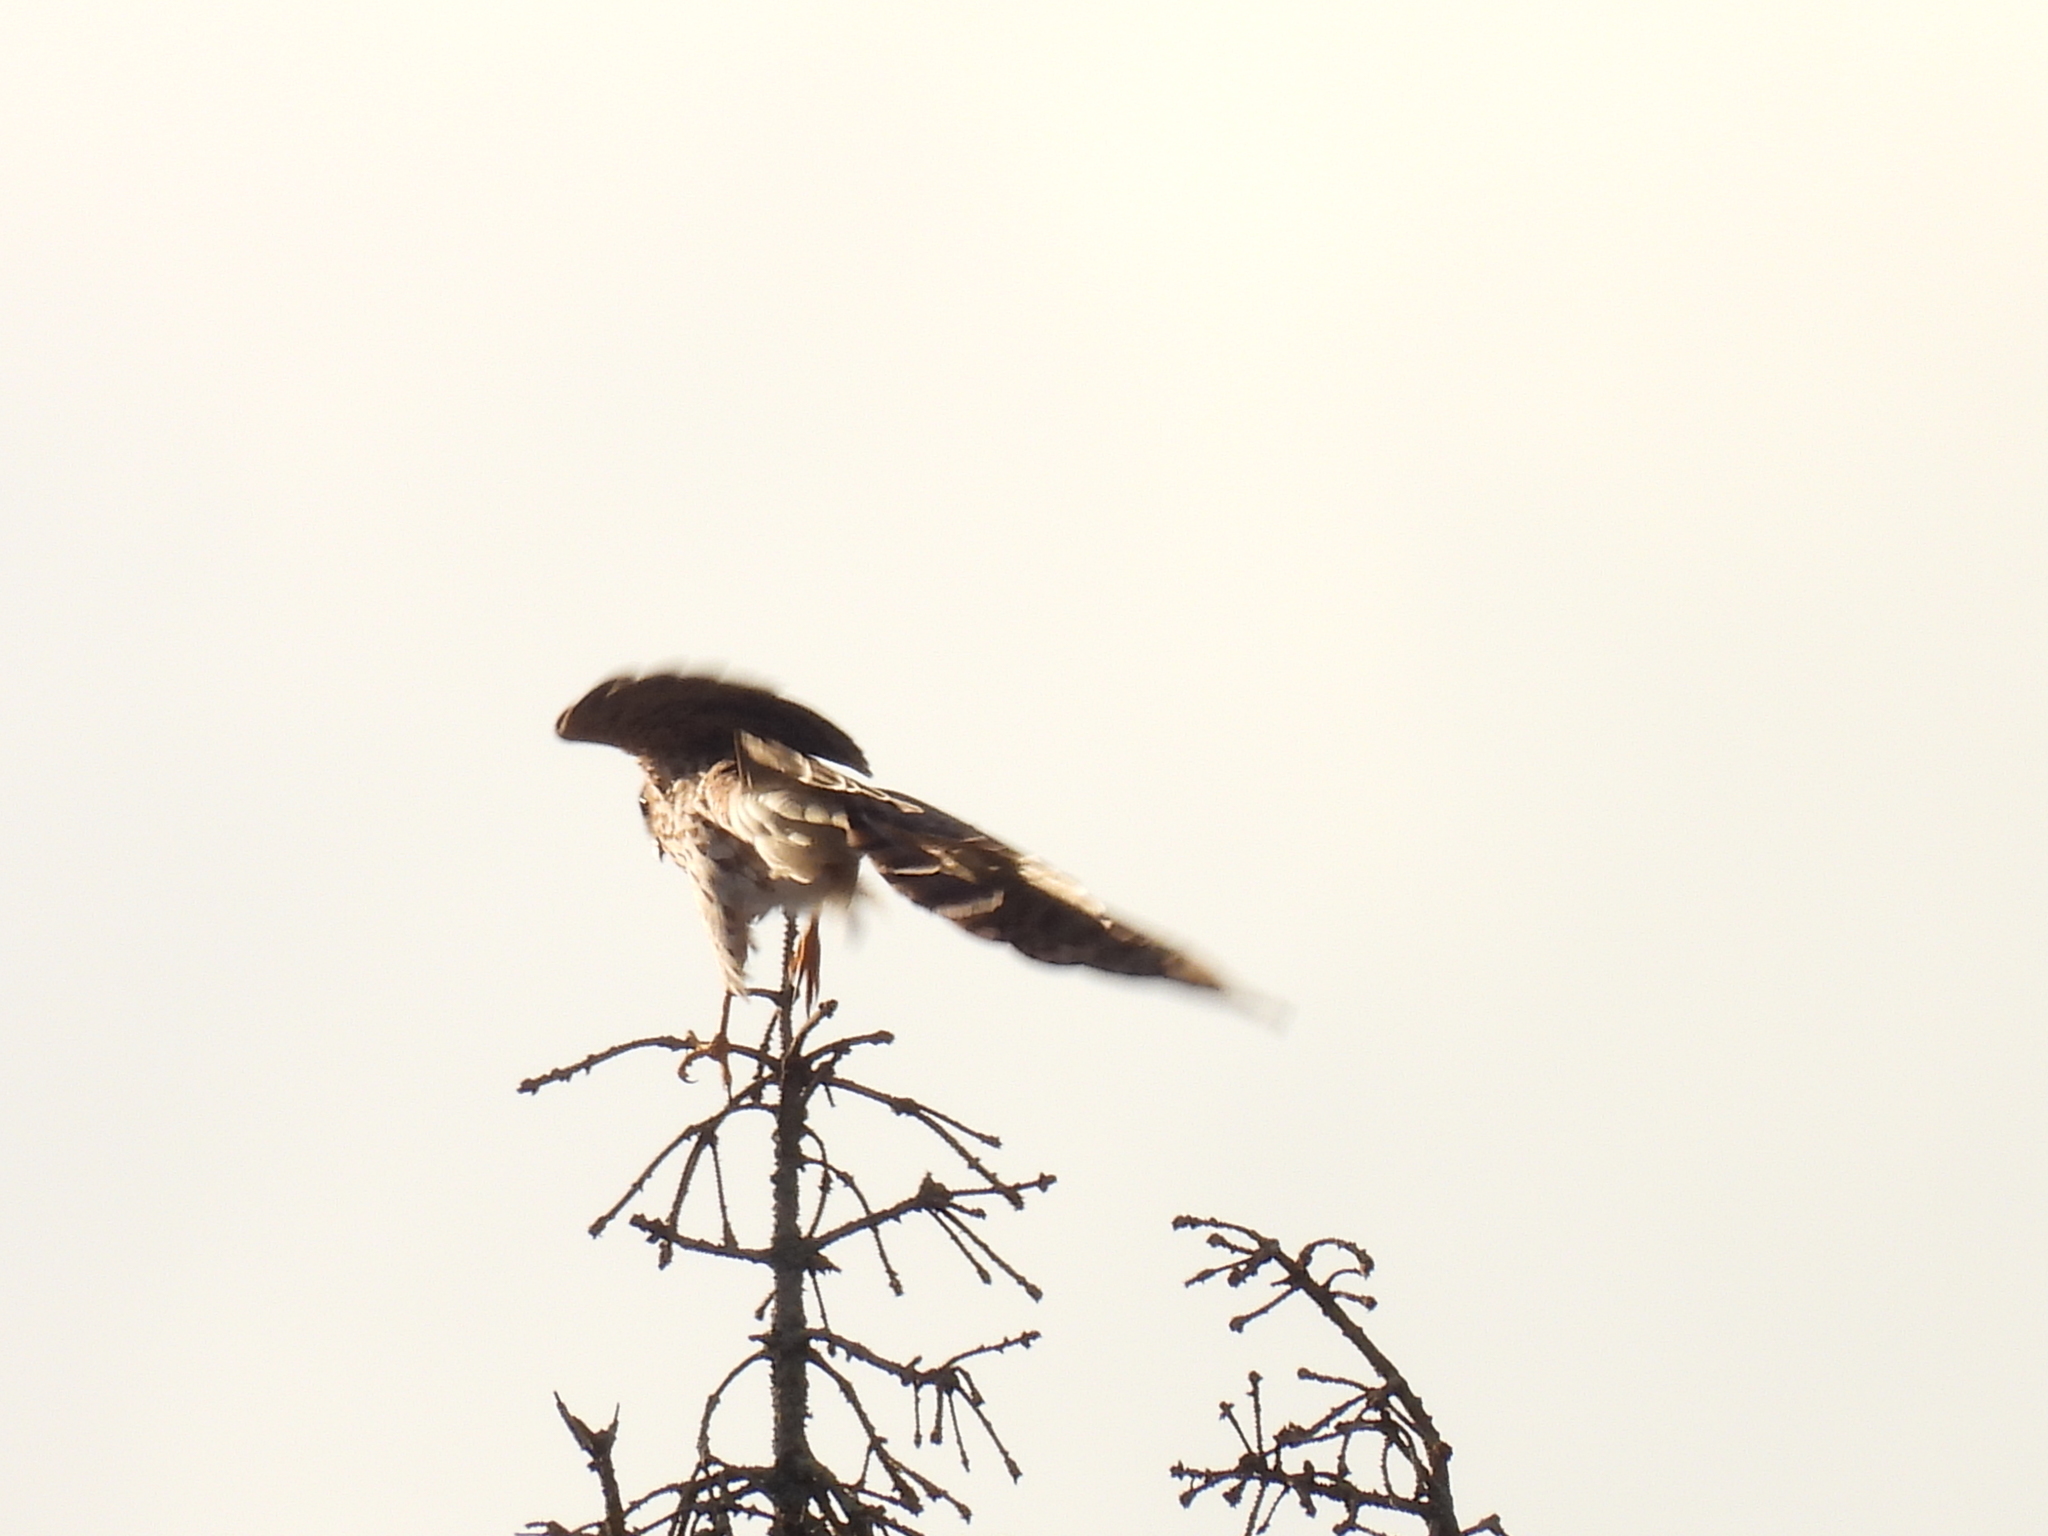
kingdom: Animalia
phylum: Chordata
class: Aves
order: Accipitriformes
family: Accipitridae
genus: Accipiter
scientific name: Accipiter cooperii
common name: Cooper's hawk
